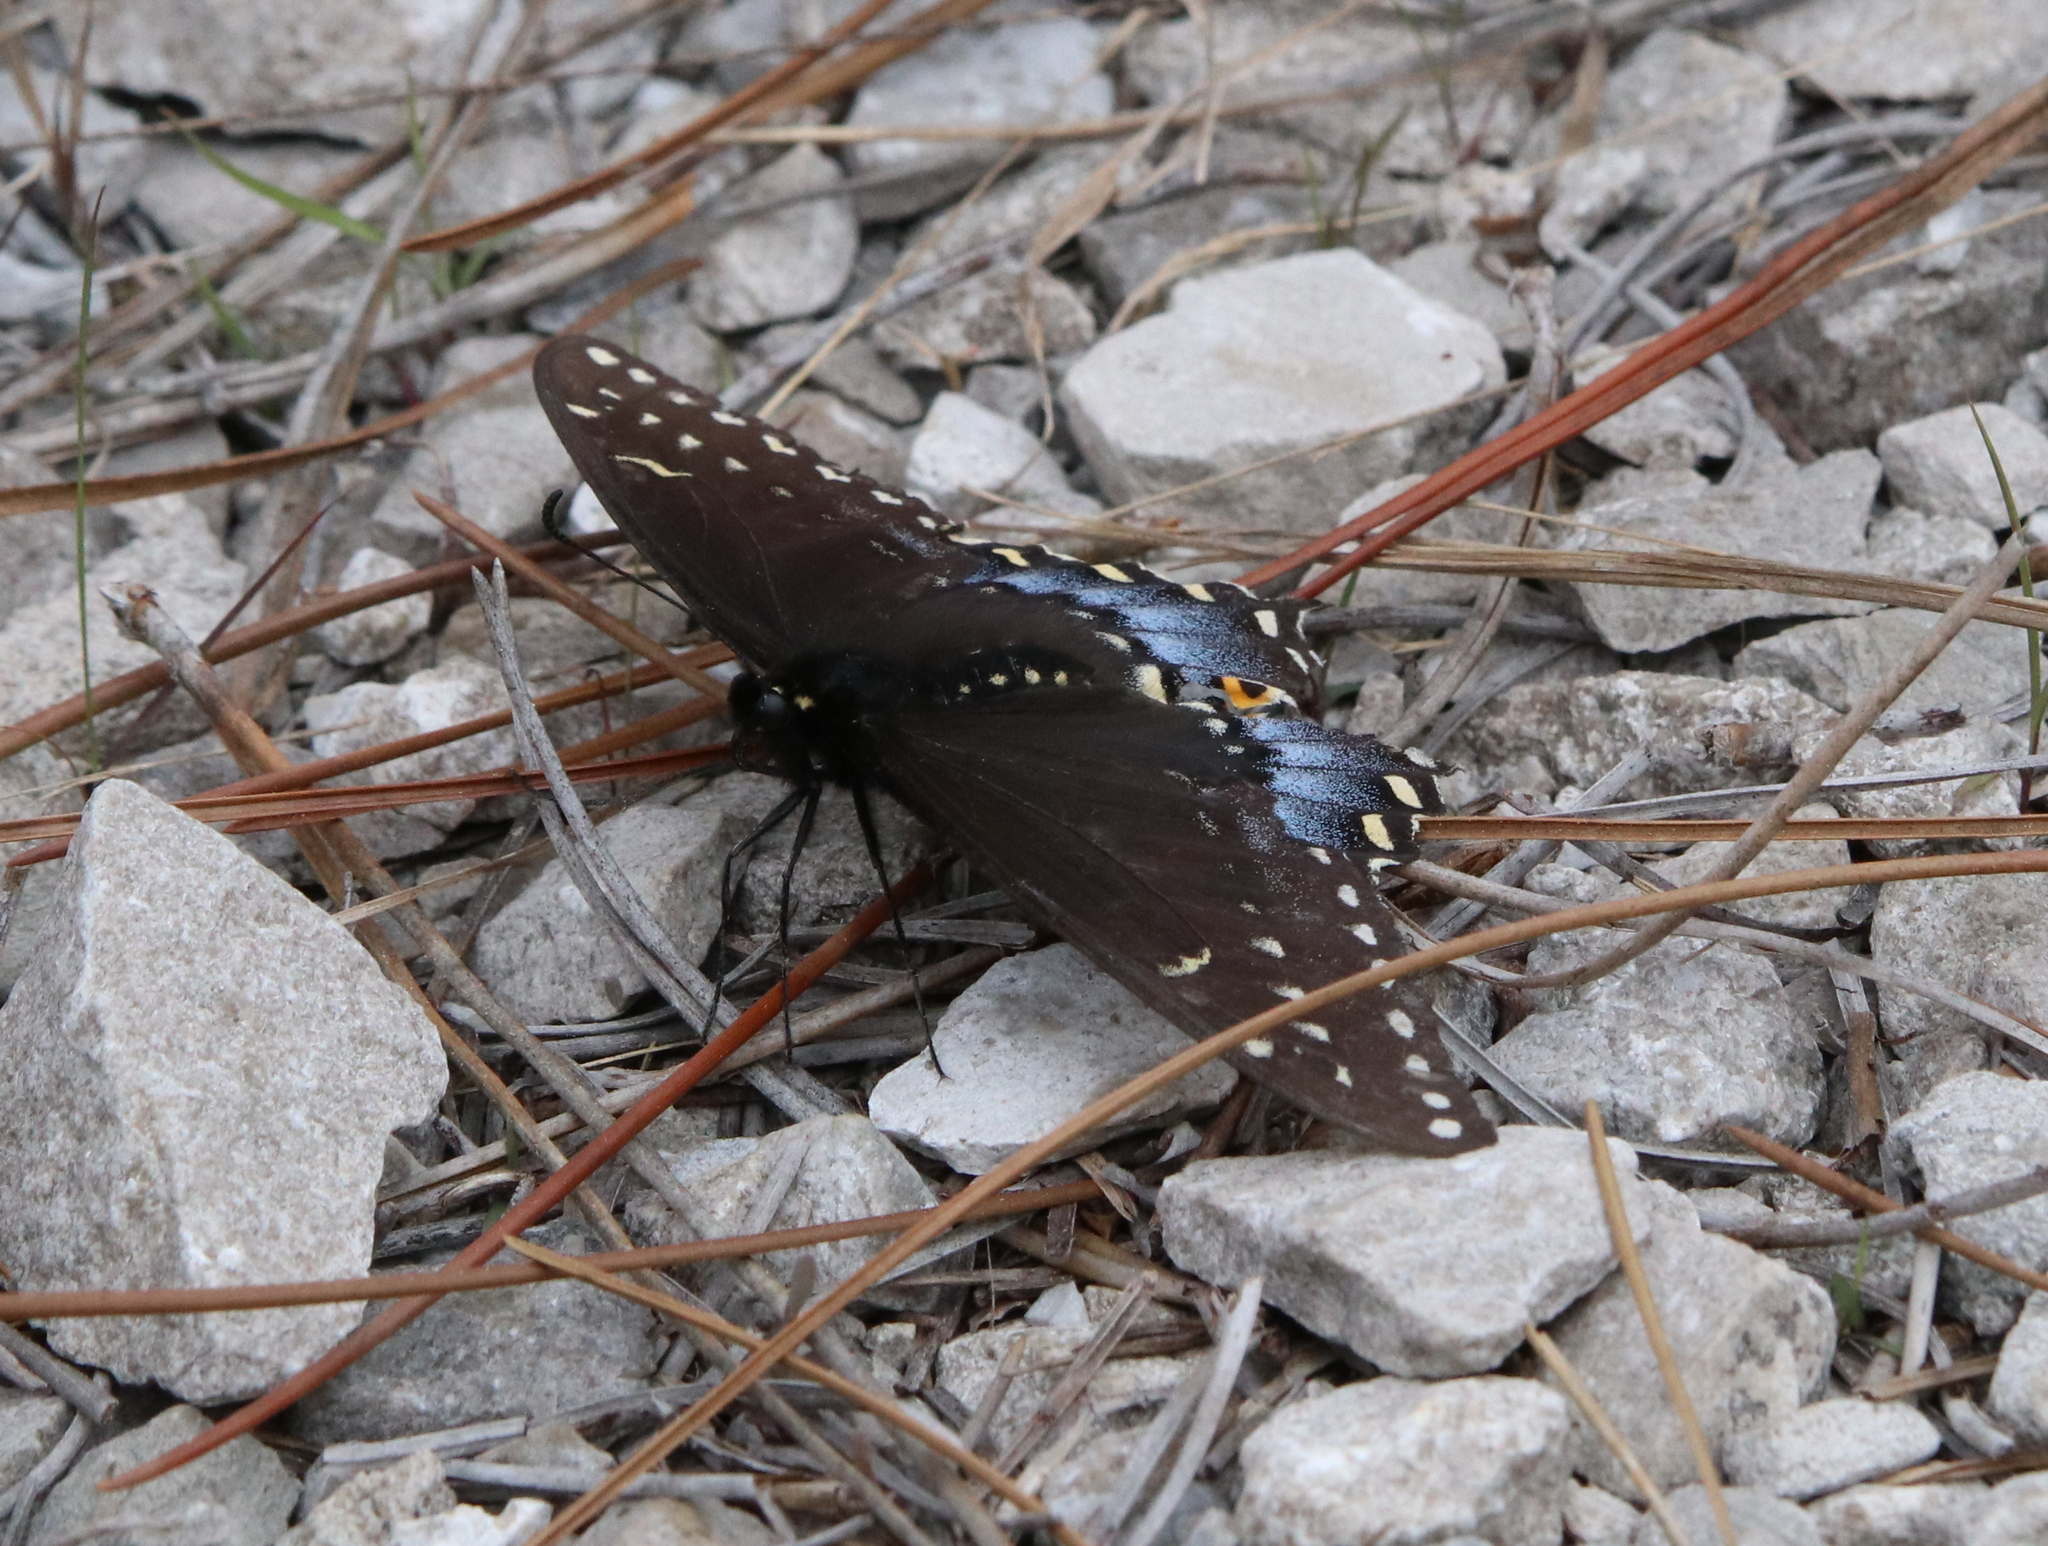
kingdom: Animalia
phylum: Arthropoda
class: Insecta
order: Lepidoptera
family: Papilionidae
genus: Papilio
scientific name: Papilio polyxenes
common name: Black swallowtail
